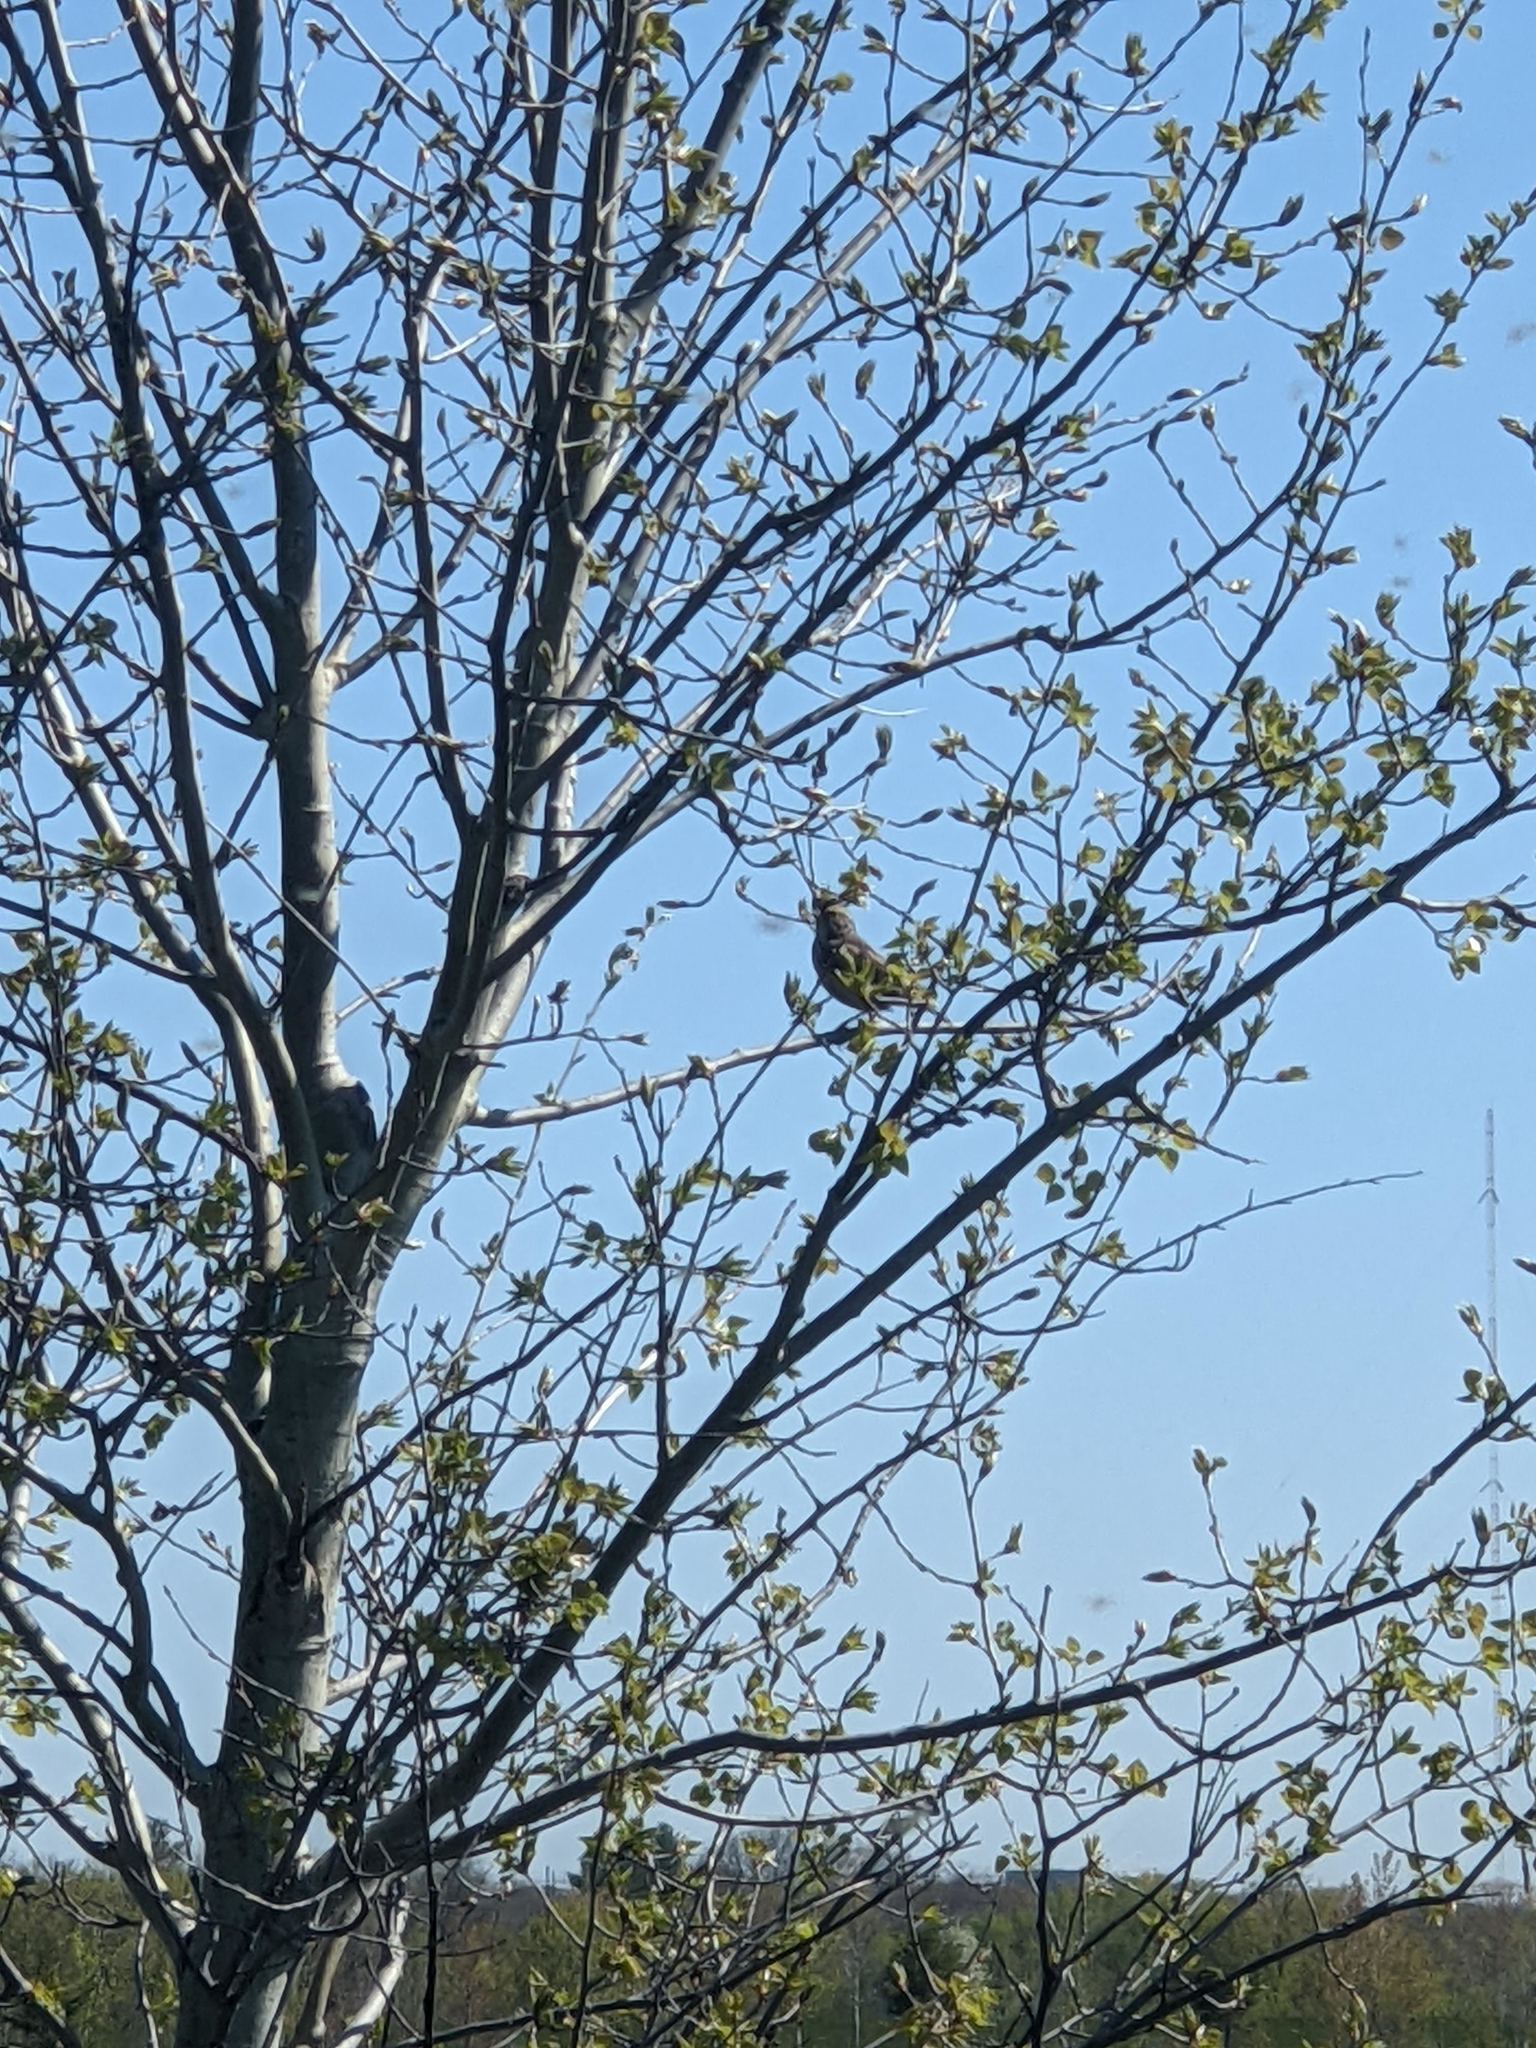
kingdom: Animalia
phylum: Chordata
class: Aves
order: Passeriformes
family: Passerellidae
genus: Melospiza
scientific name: Melospiza melodia
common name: Song sparrow
